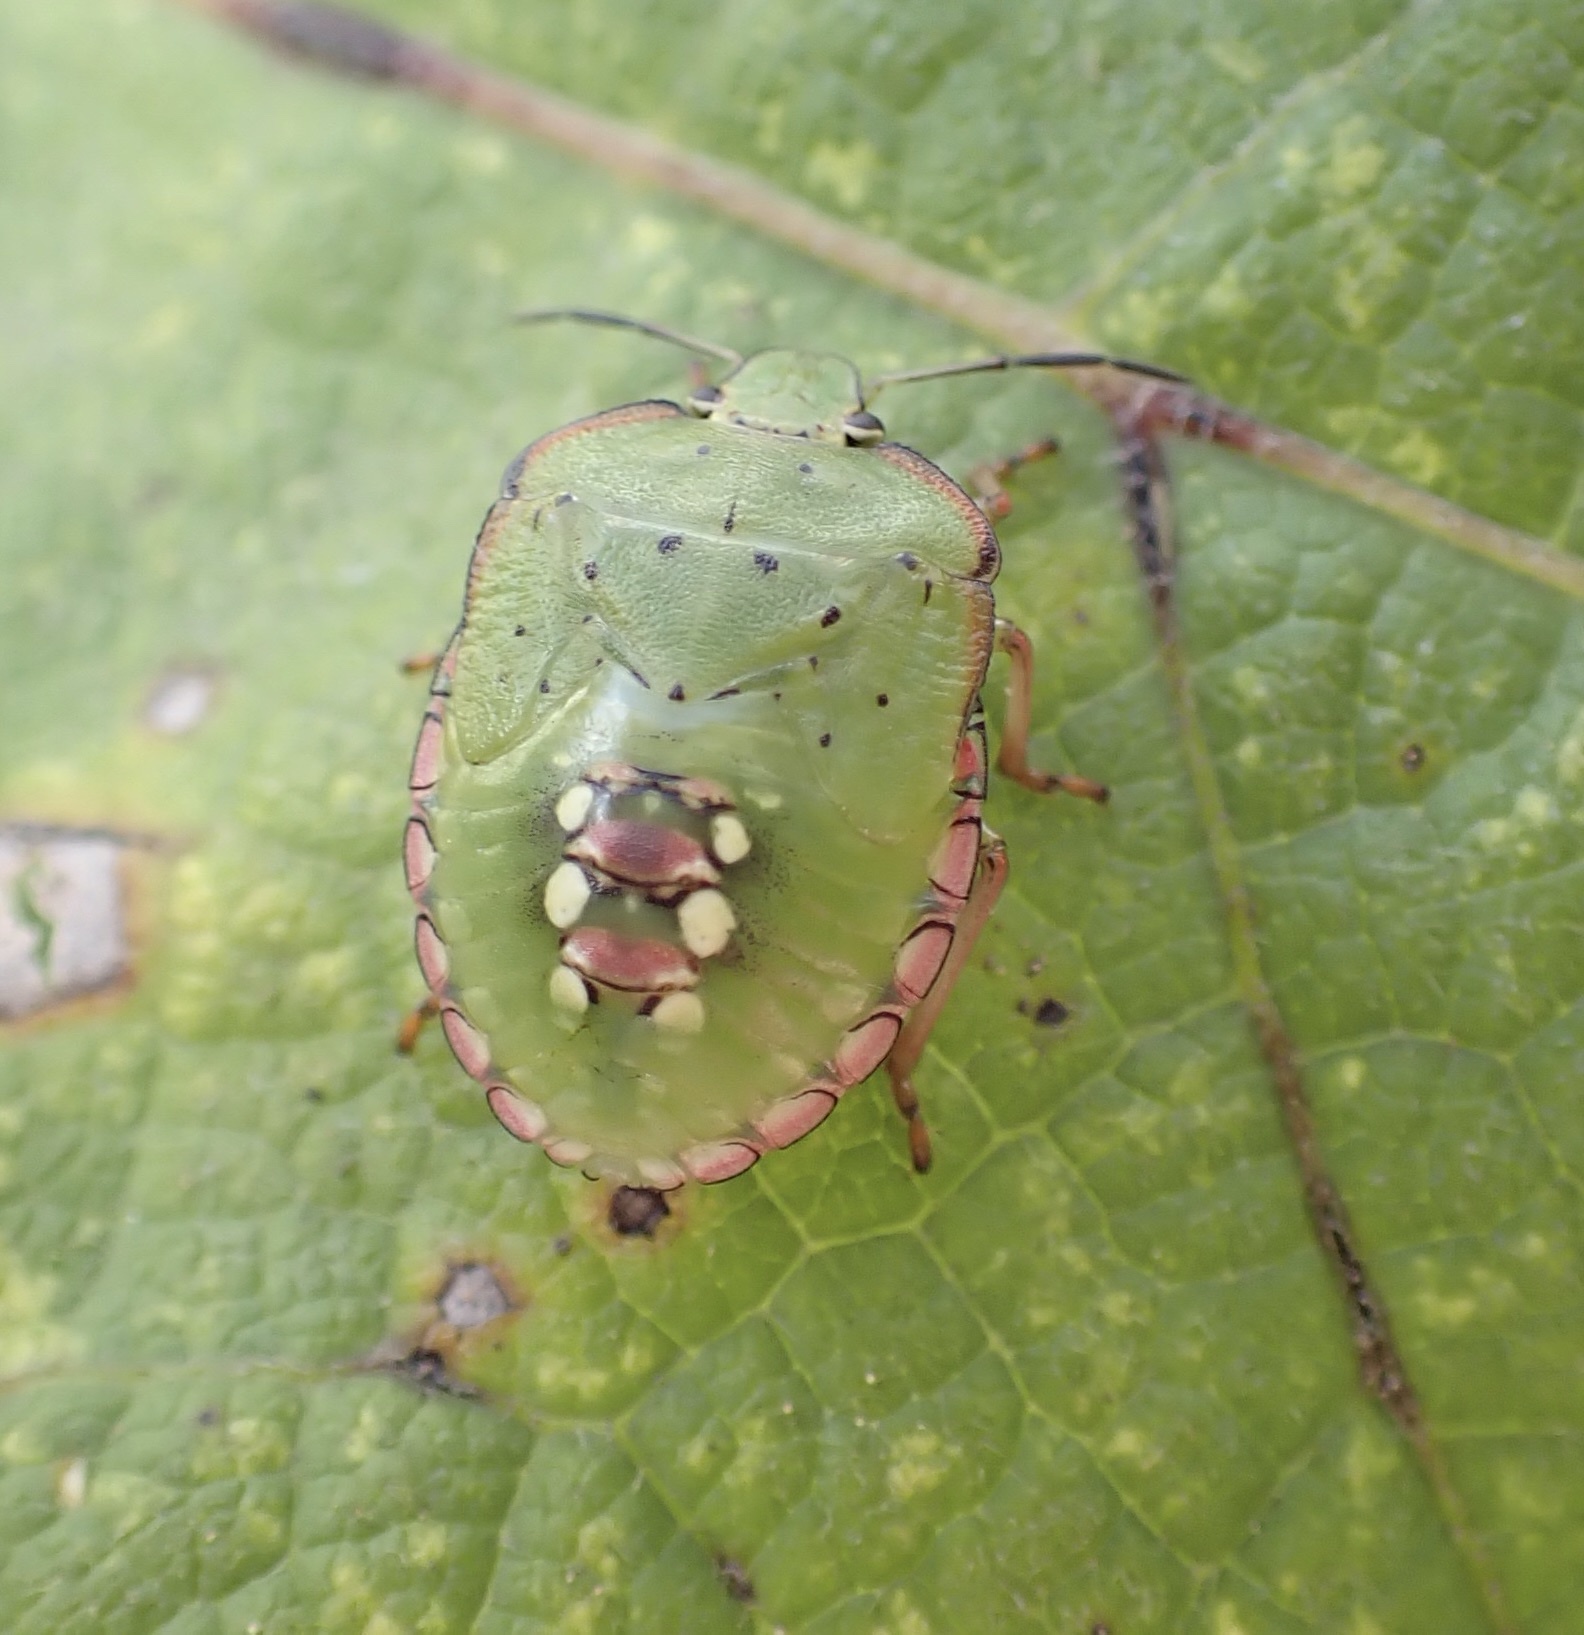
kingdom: Animalia
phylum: Arthropoda
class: Insecta
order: Hemiptera
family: Pentatomidae
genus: Nezara
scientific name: Nezara viridula
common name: Southern green stink bug
